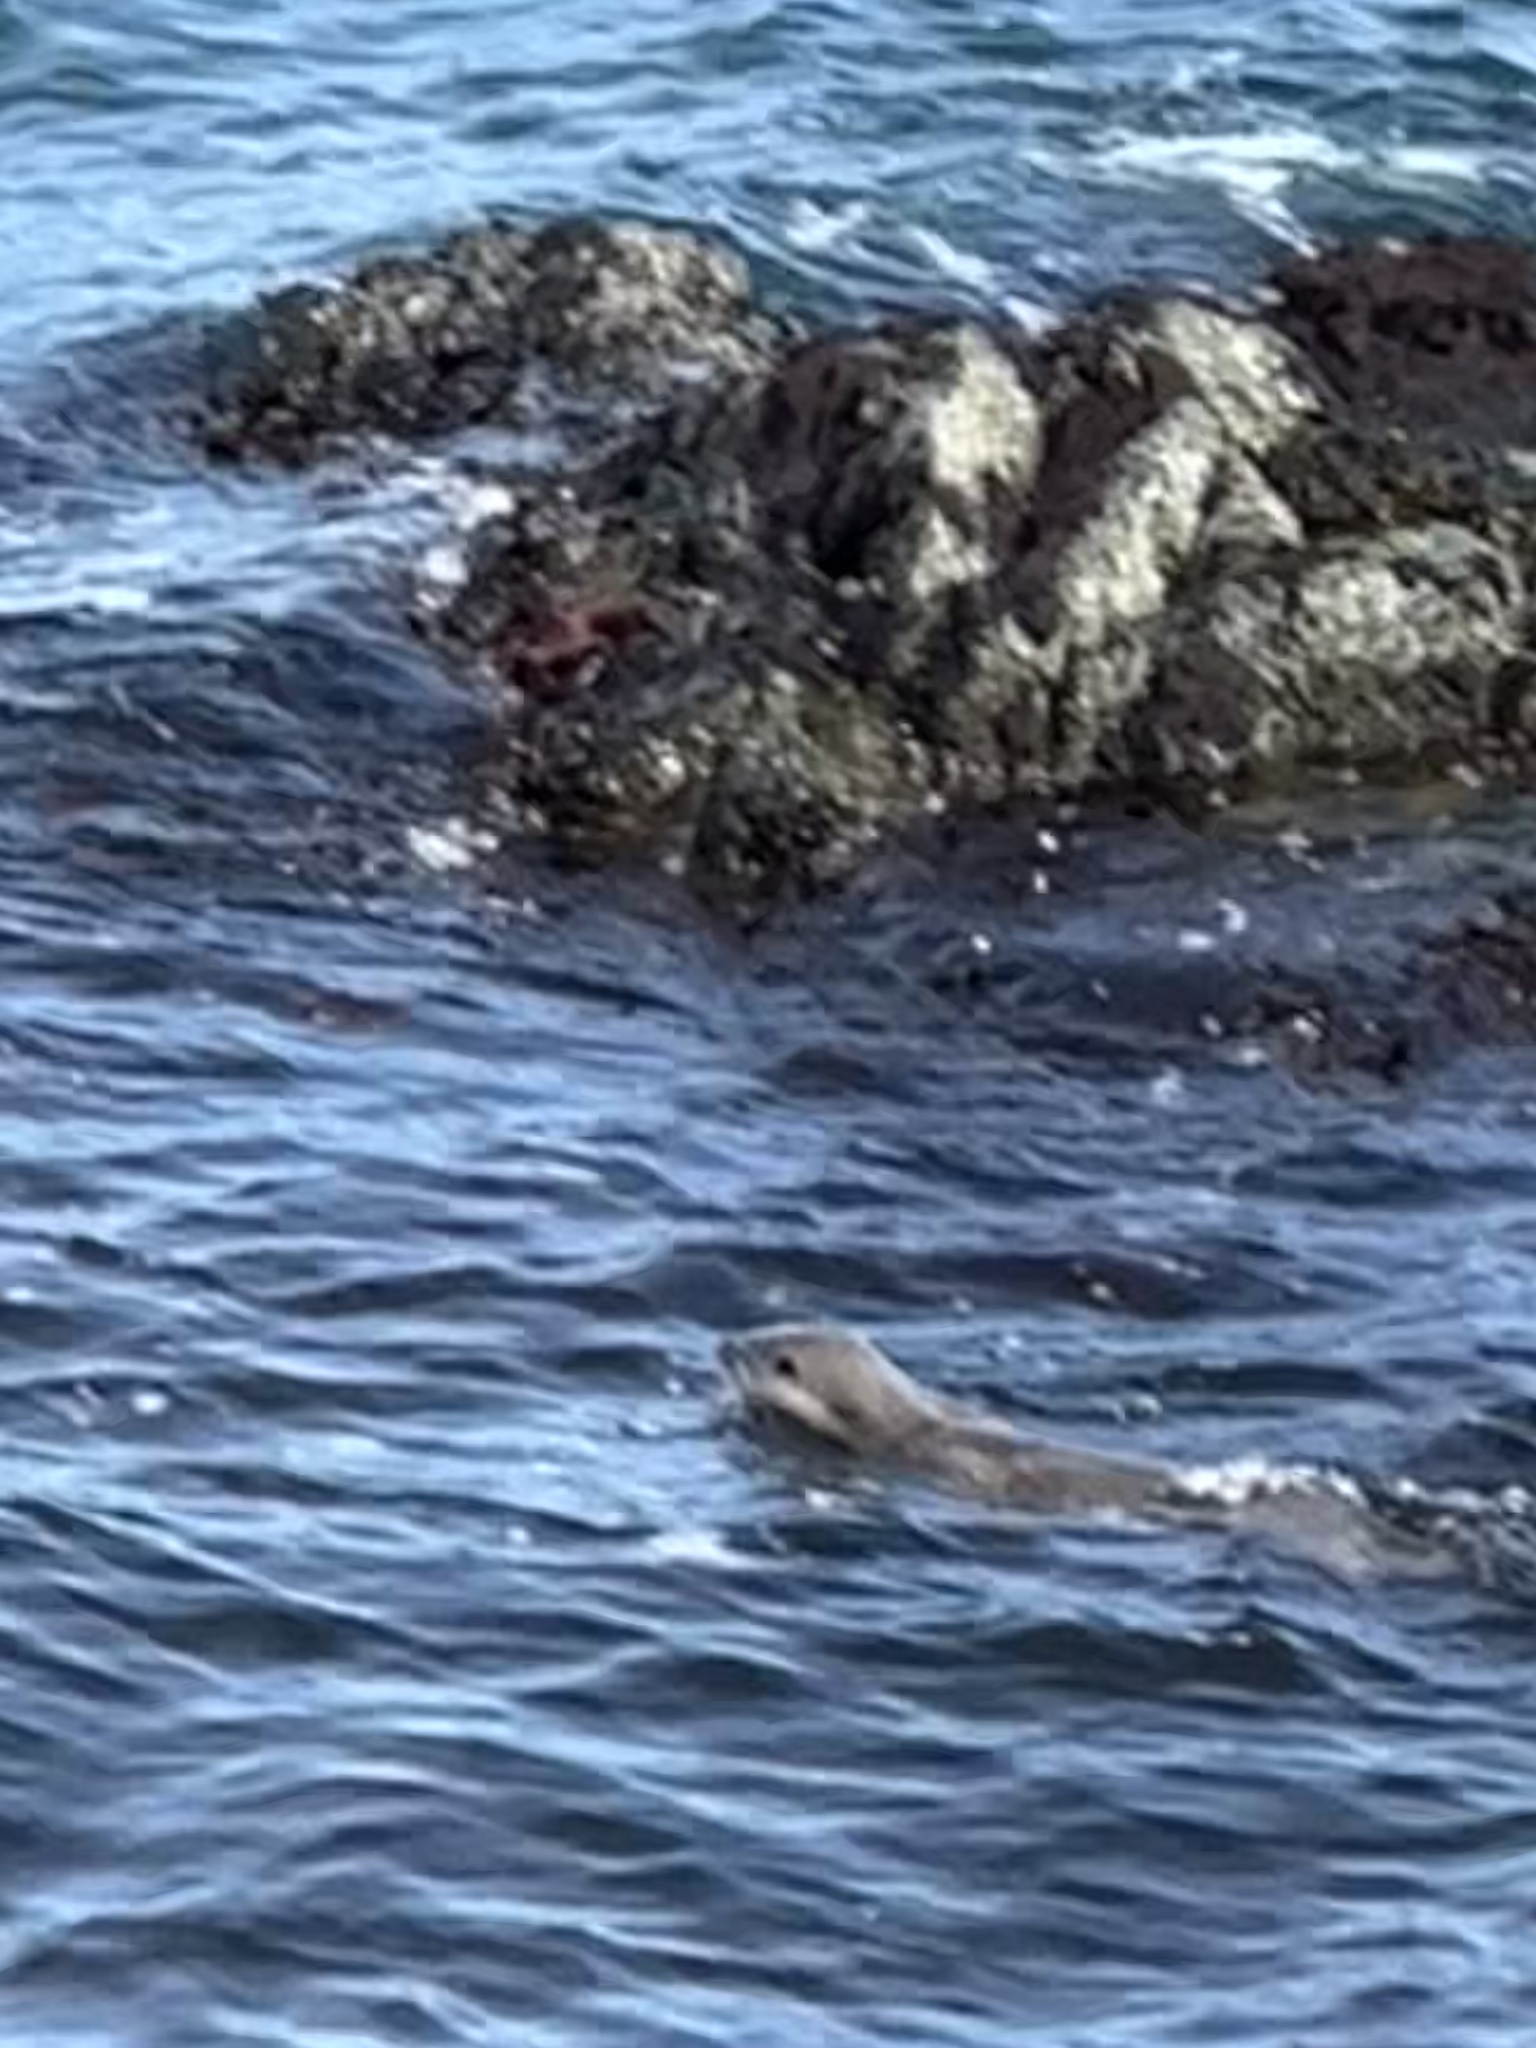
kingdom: Animalia
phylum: Chordata
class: Mammalia
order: Carnivora
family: Mustelidae
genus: Lontra
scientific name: Lontra canadensis
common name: North american river otter
